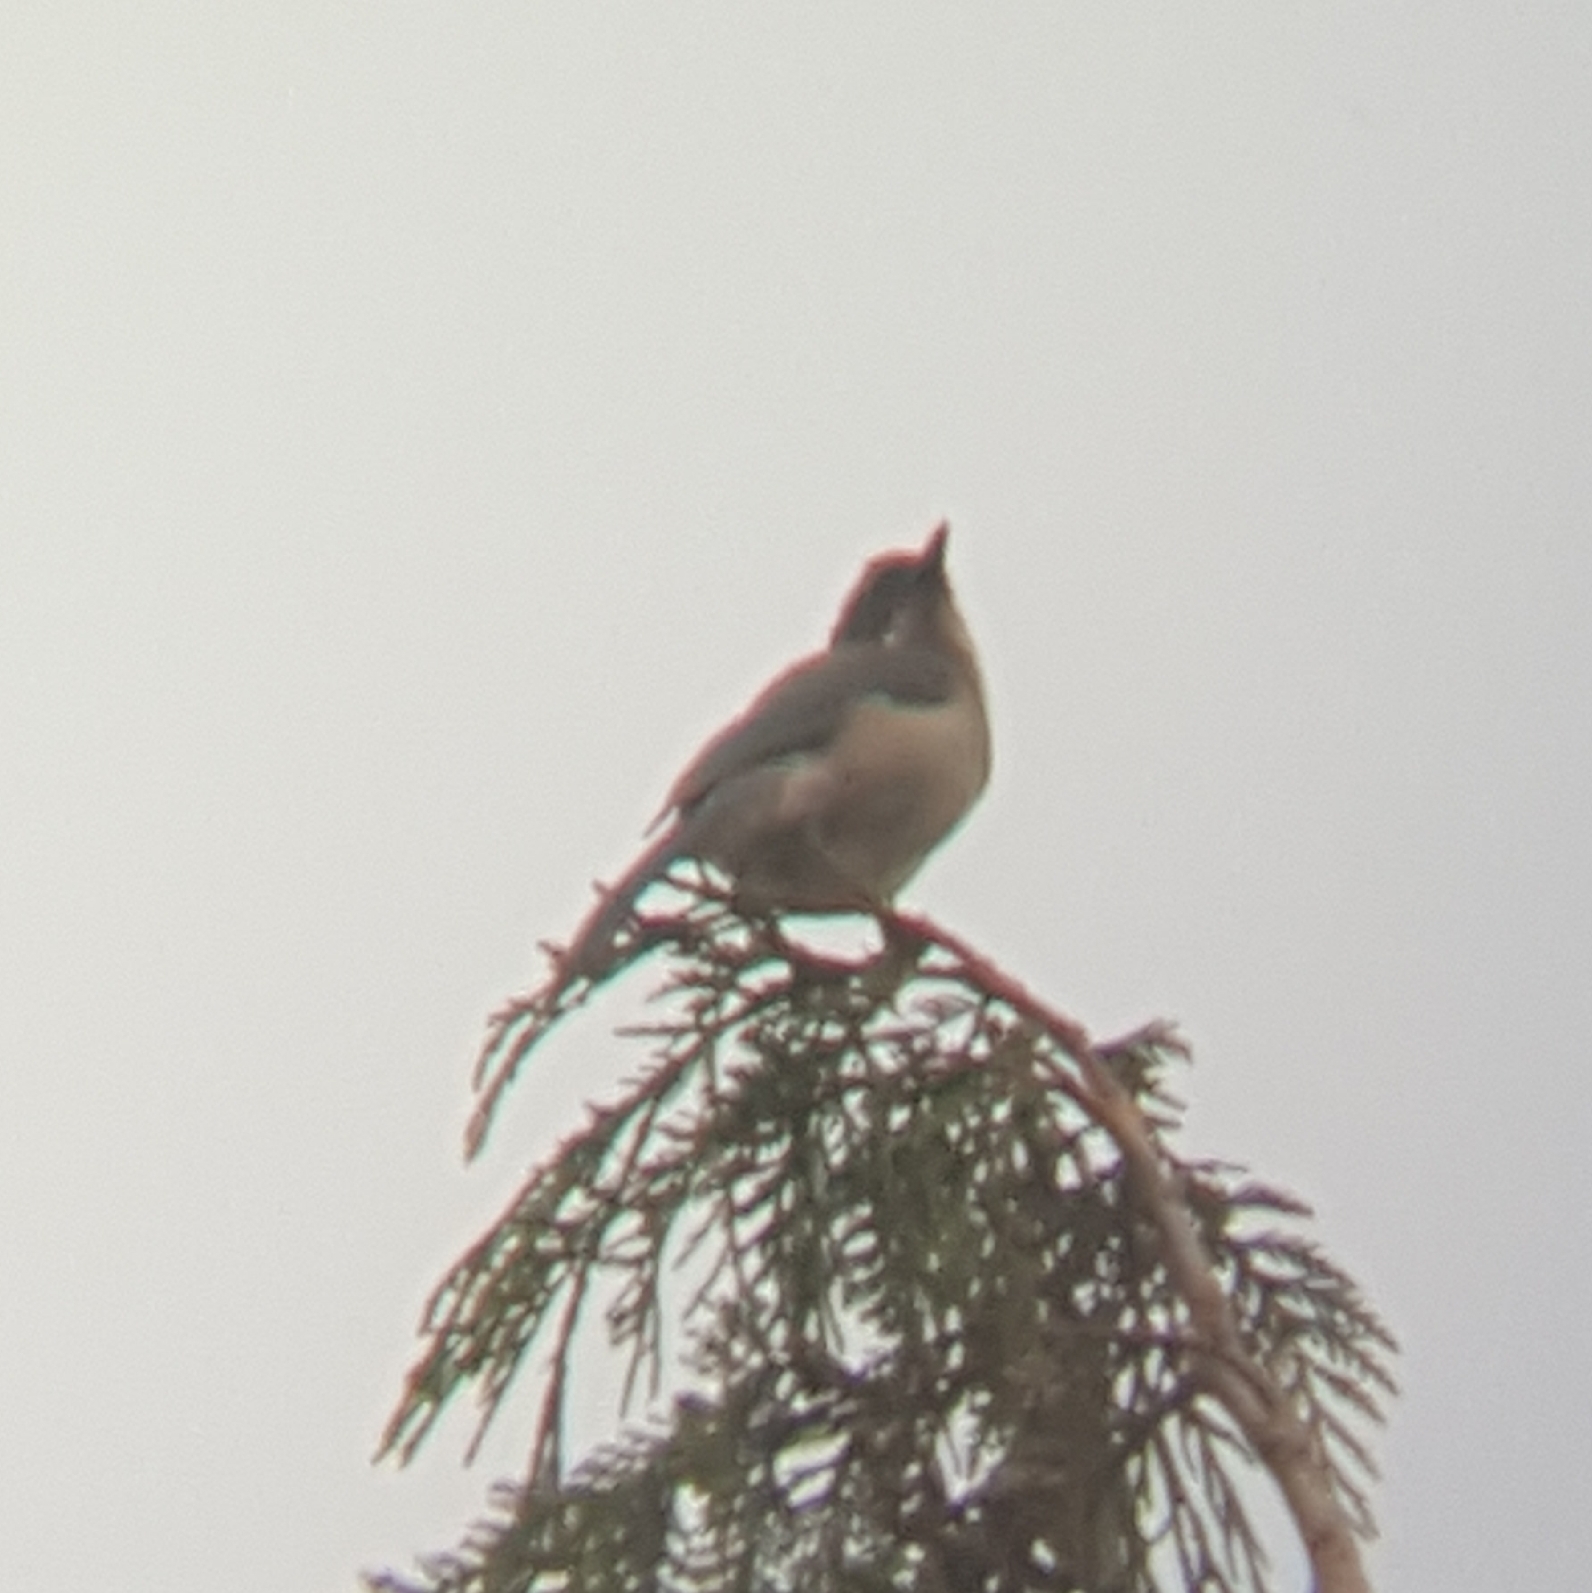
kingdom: Animalia
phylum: Chordata
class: Aves
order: Passeriformes
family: Corvidae
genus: Aphelocoma
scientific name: Aphelocoma californica
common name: California scrub-jay
